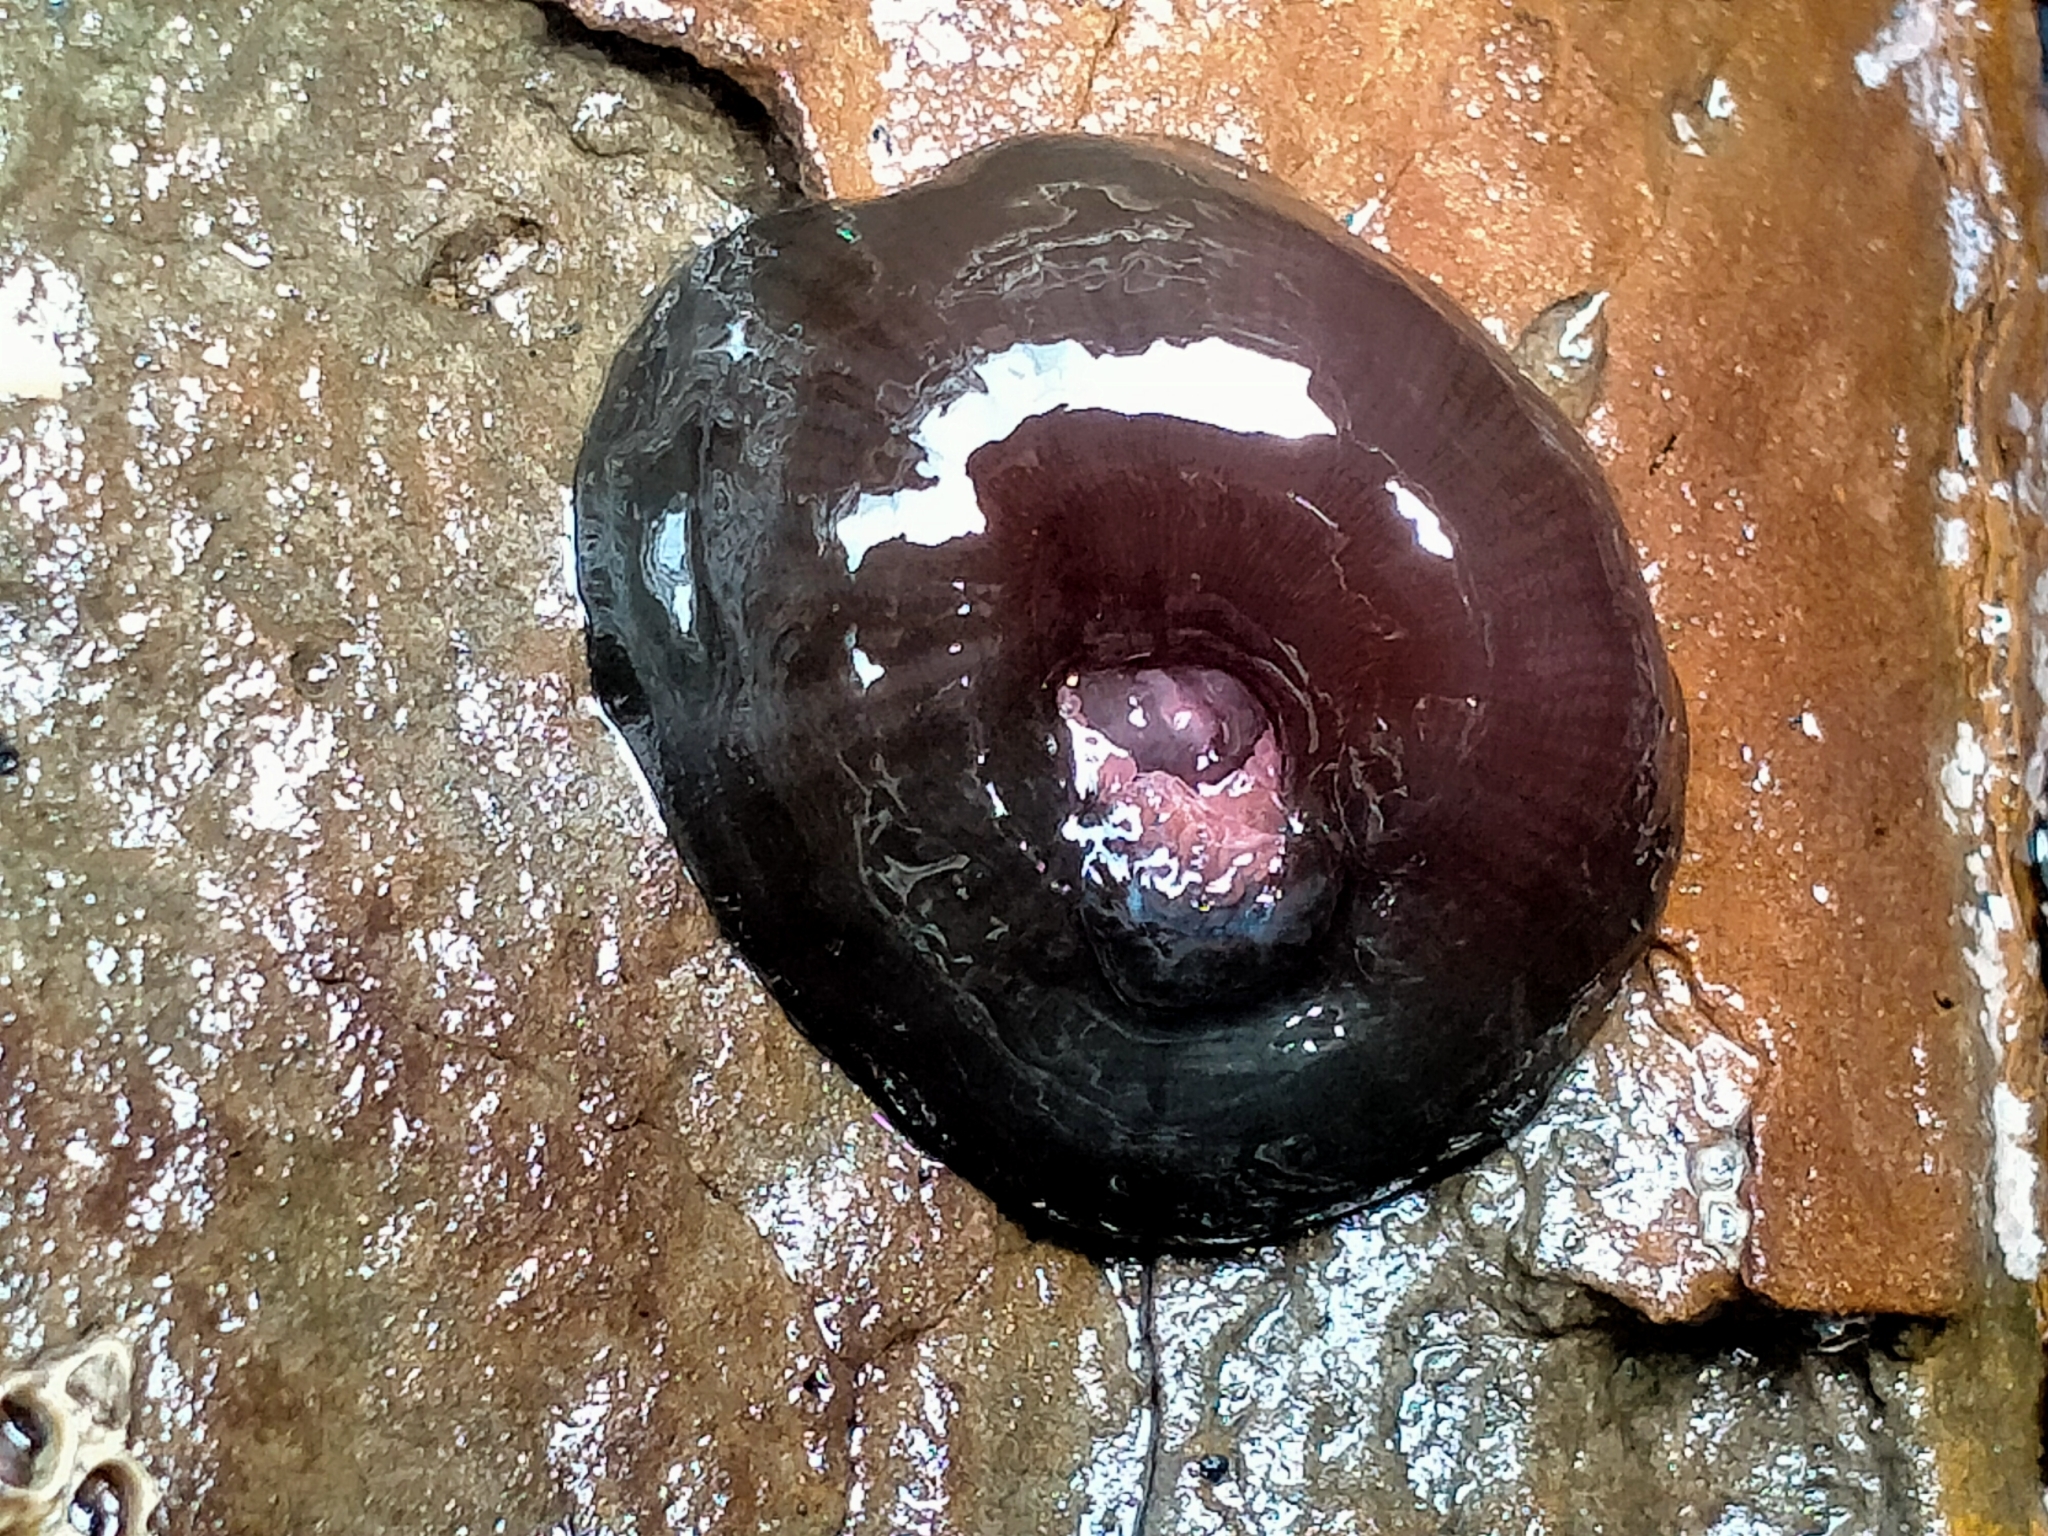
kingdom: Animalia
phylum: Cnidaria
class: Anthozoa
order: Actiniaria
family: Actiniidae
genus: Actinia
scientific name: Actinia tenebrosa
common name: Waratah anemone
